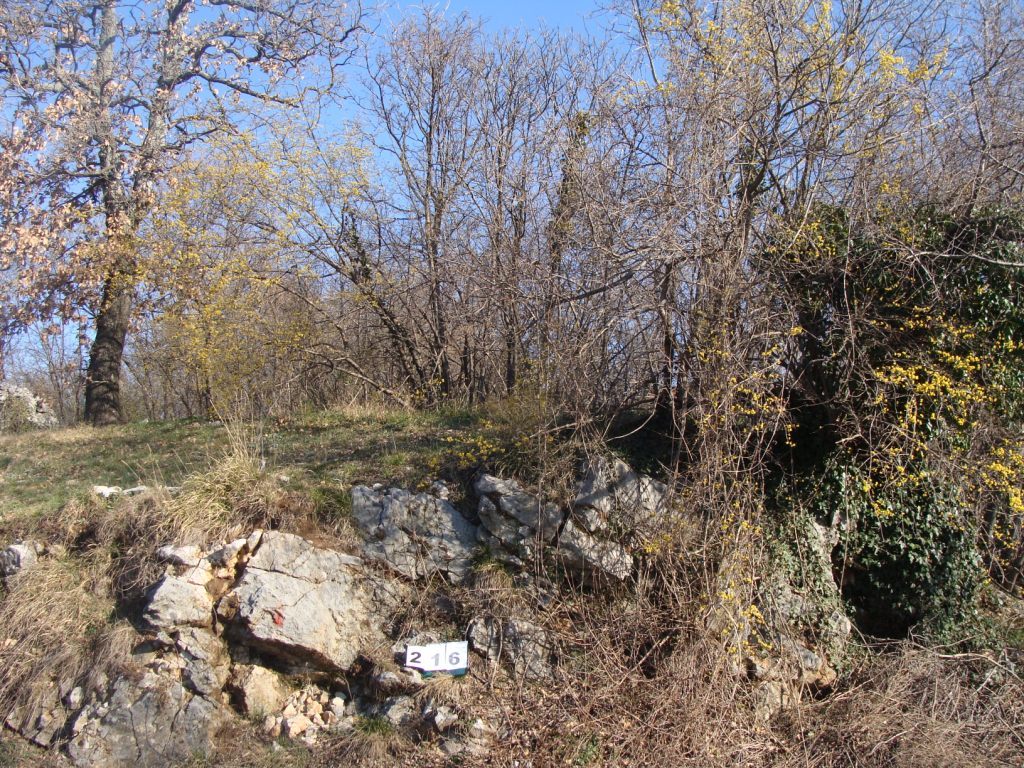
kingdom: Plantae
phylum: Tracheophyta
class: Magnoliopsida
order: Cornales
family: Cornaceae
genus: Cornus
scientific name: Cornus mas
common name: Cornelian-cherry
